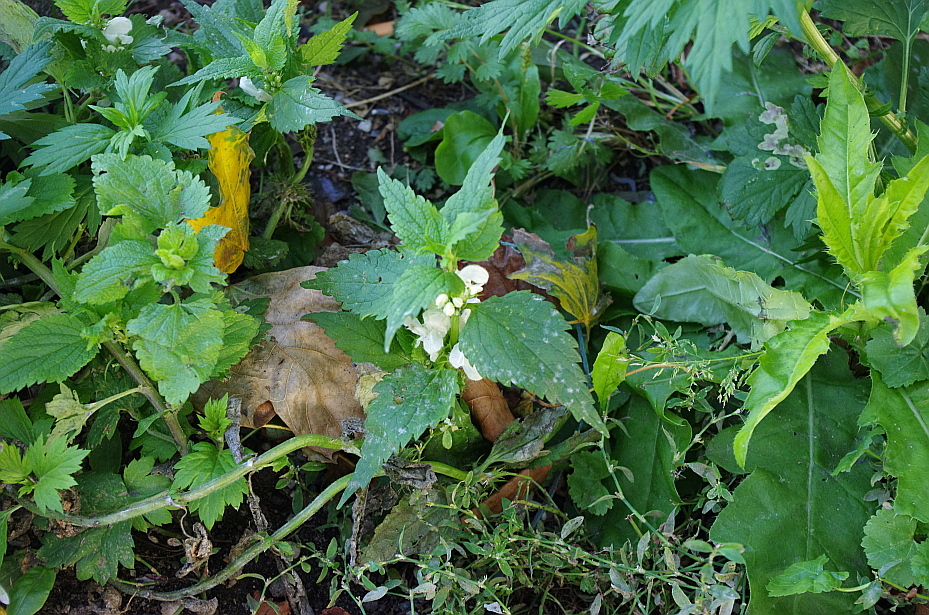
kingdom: Plantae
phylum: Tracheophyta
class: Magnoliopsida
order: Lamiales
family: Lamiaceae
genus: Lamium
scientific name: Lamium album
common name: White dead-nettle
